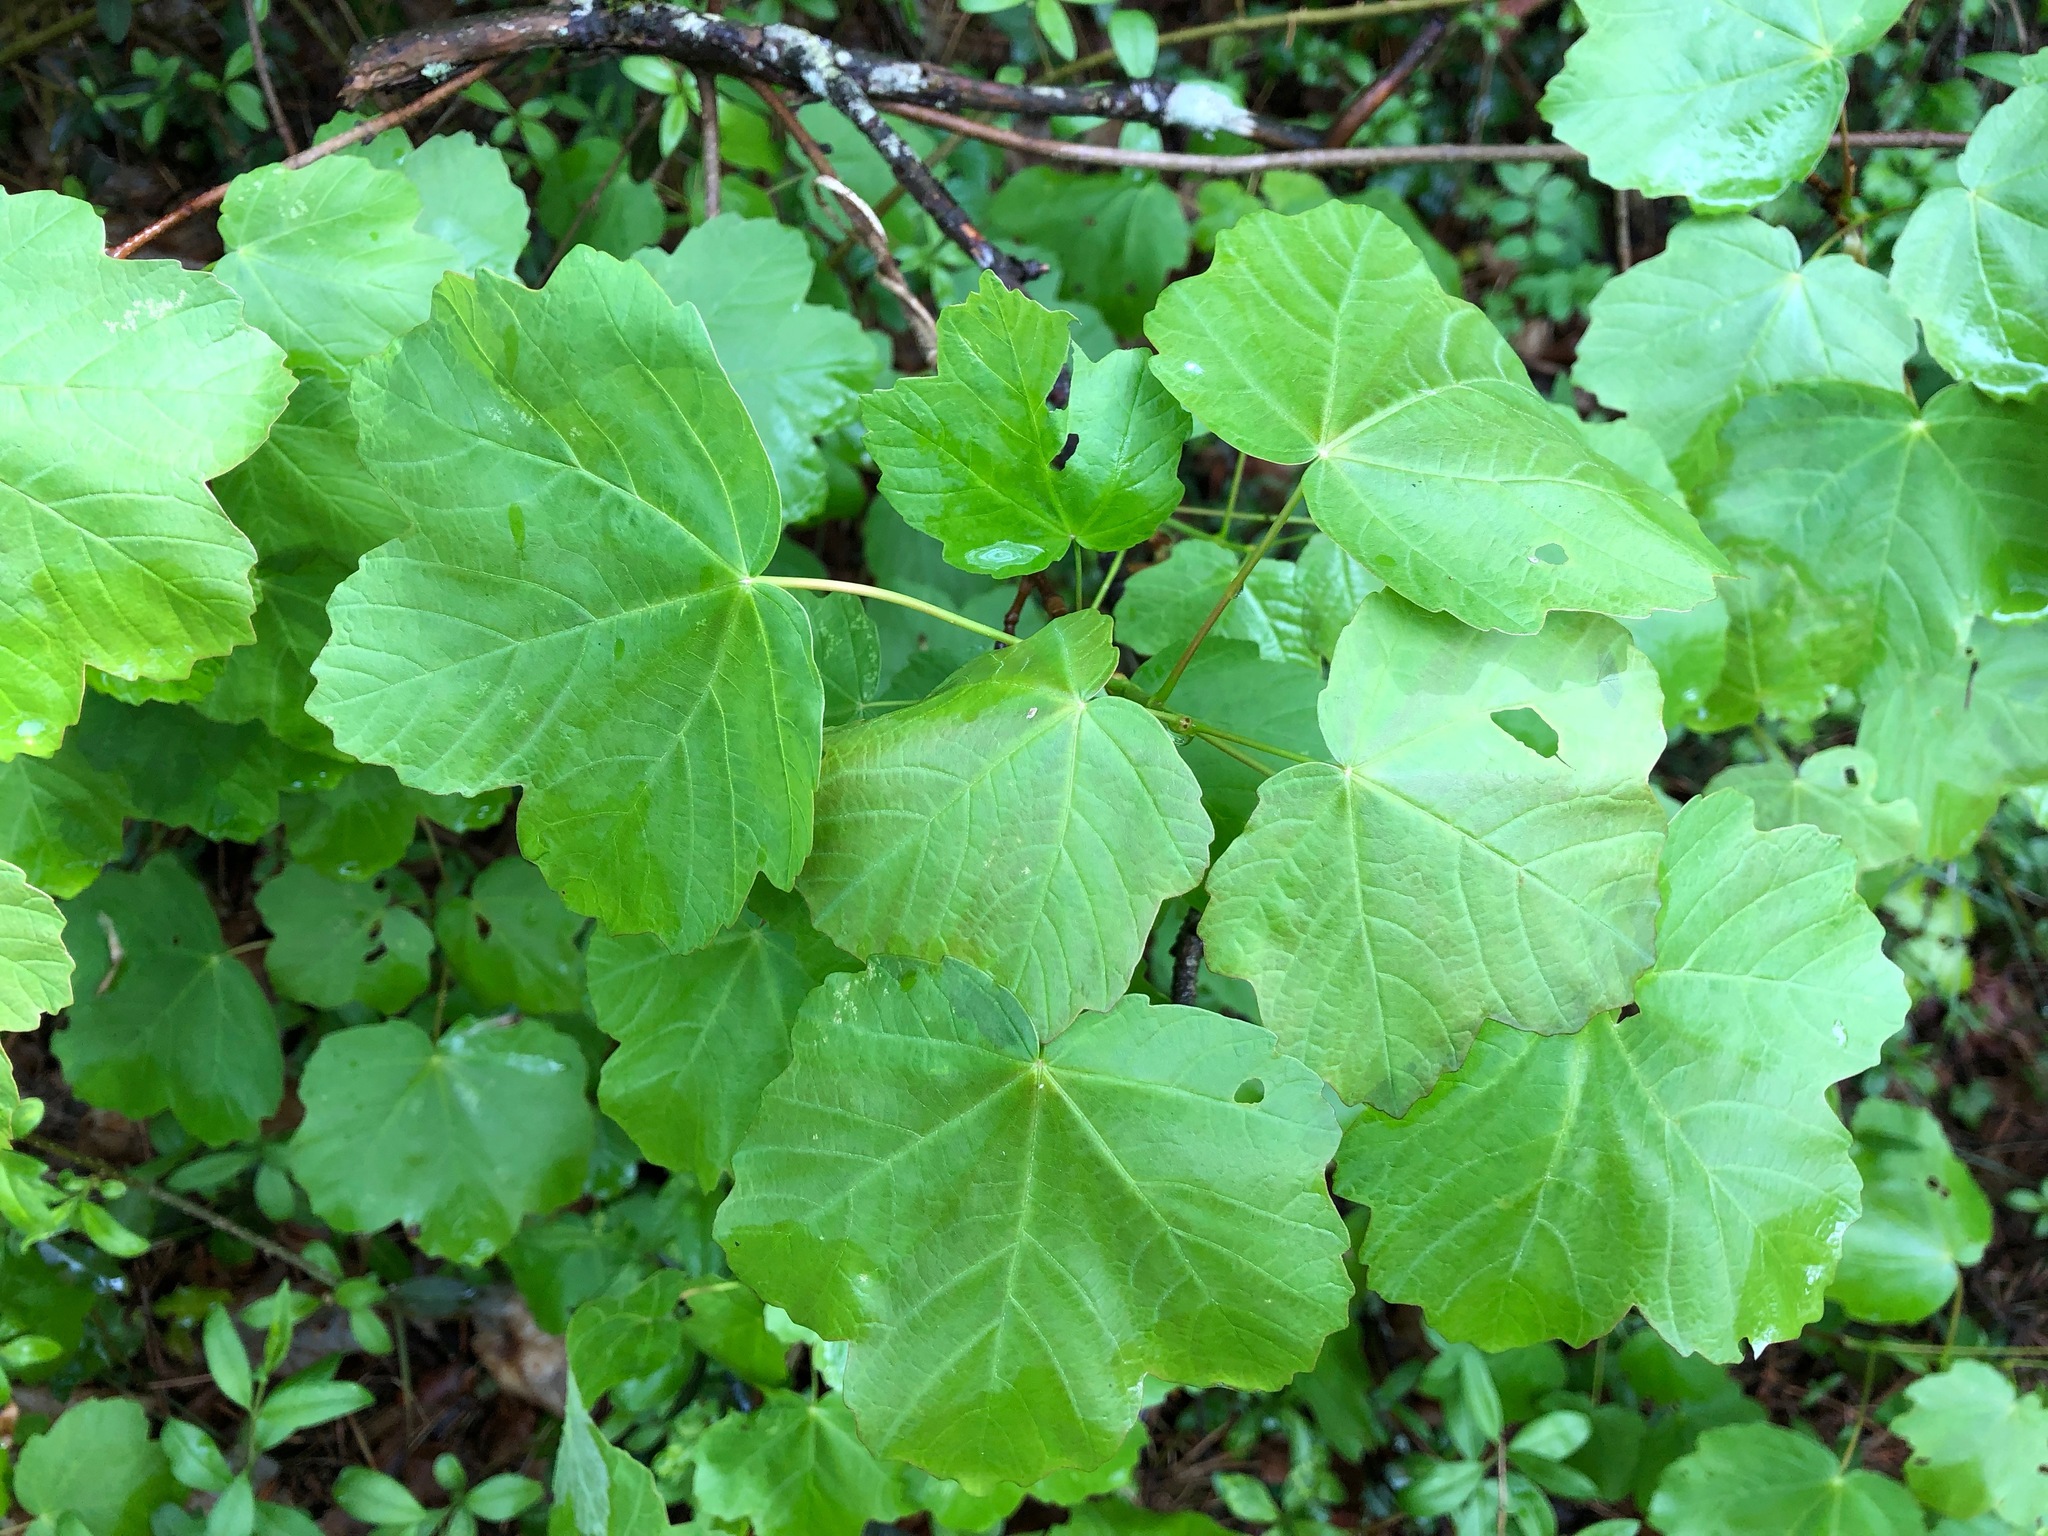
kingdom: Plantae
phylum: Tracheophyta
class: Magnoliopsida
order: Sapindales
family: Sapindaceae
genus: Acer
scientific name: Acer opalus
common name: Italian maple
